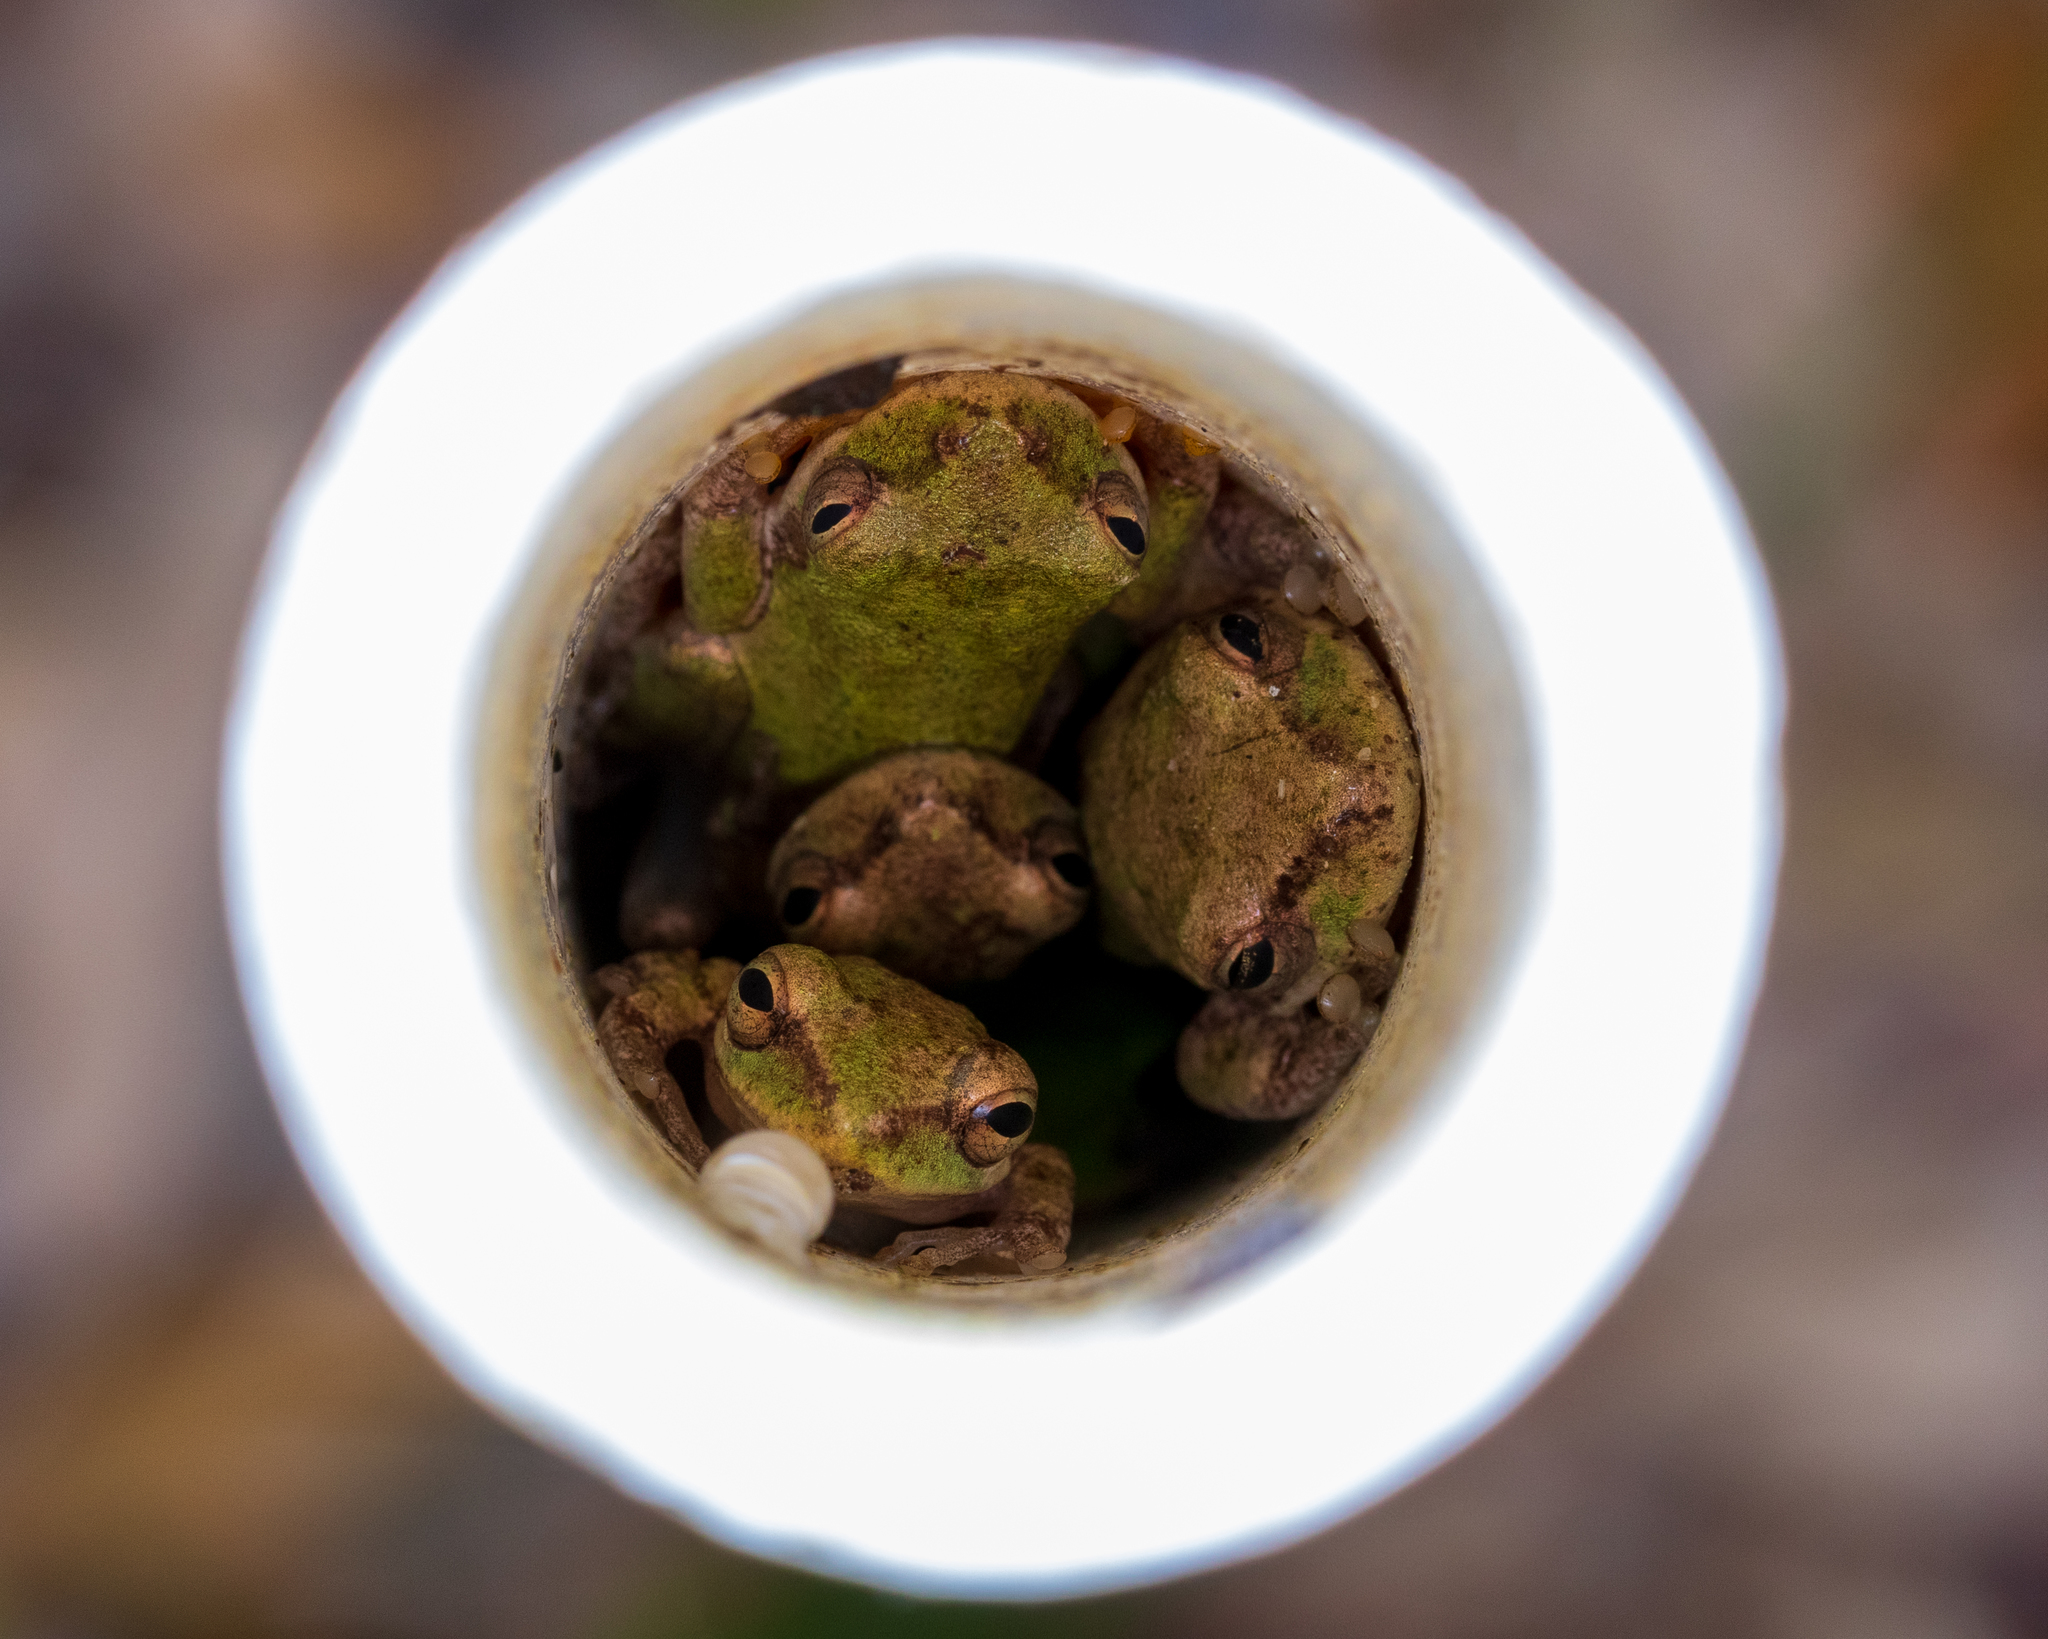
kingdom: Animalia
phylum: Chordata
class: Amphibia
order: Anura
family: Hylidae
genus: Dryophytes
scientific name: Dryophytes squirellus
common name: Squirrel treefrog
